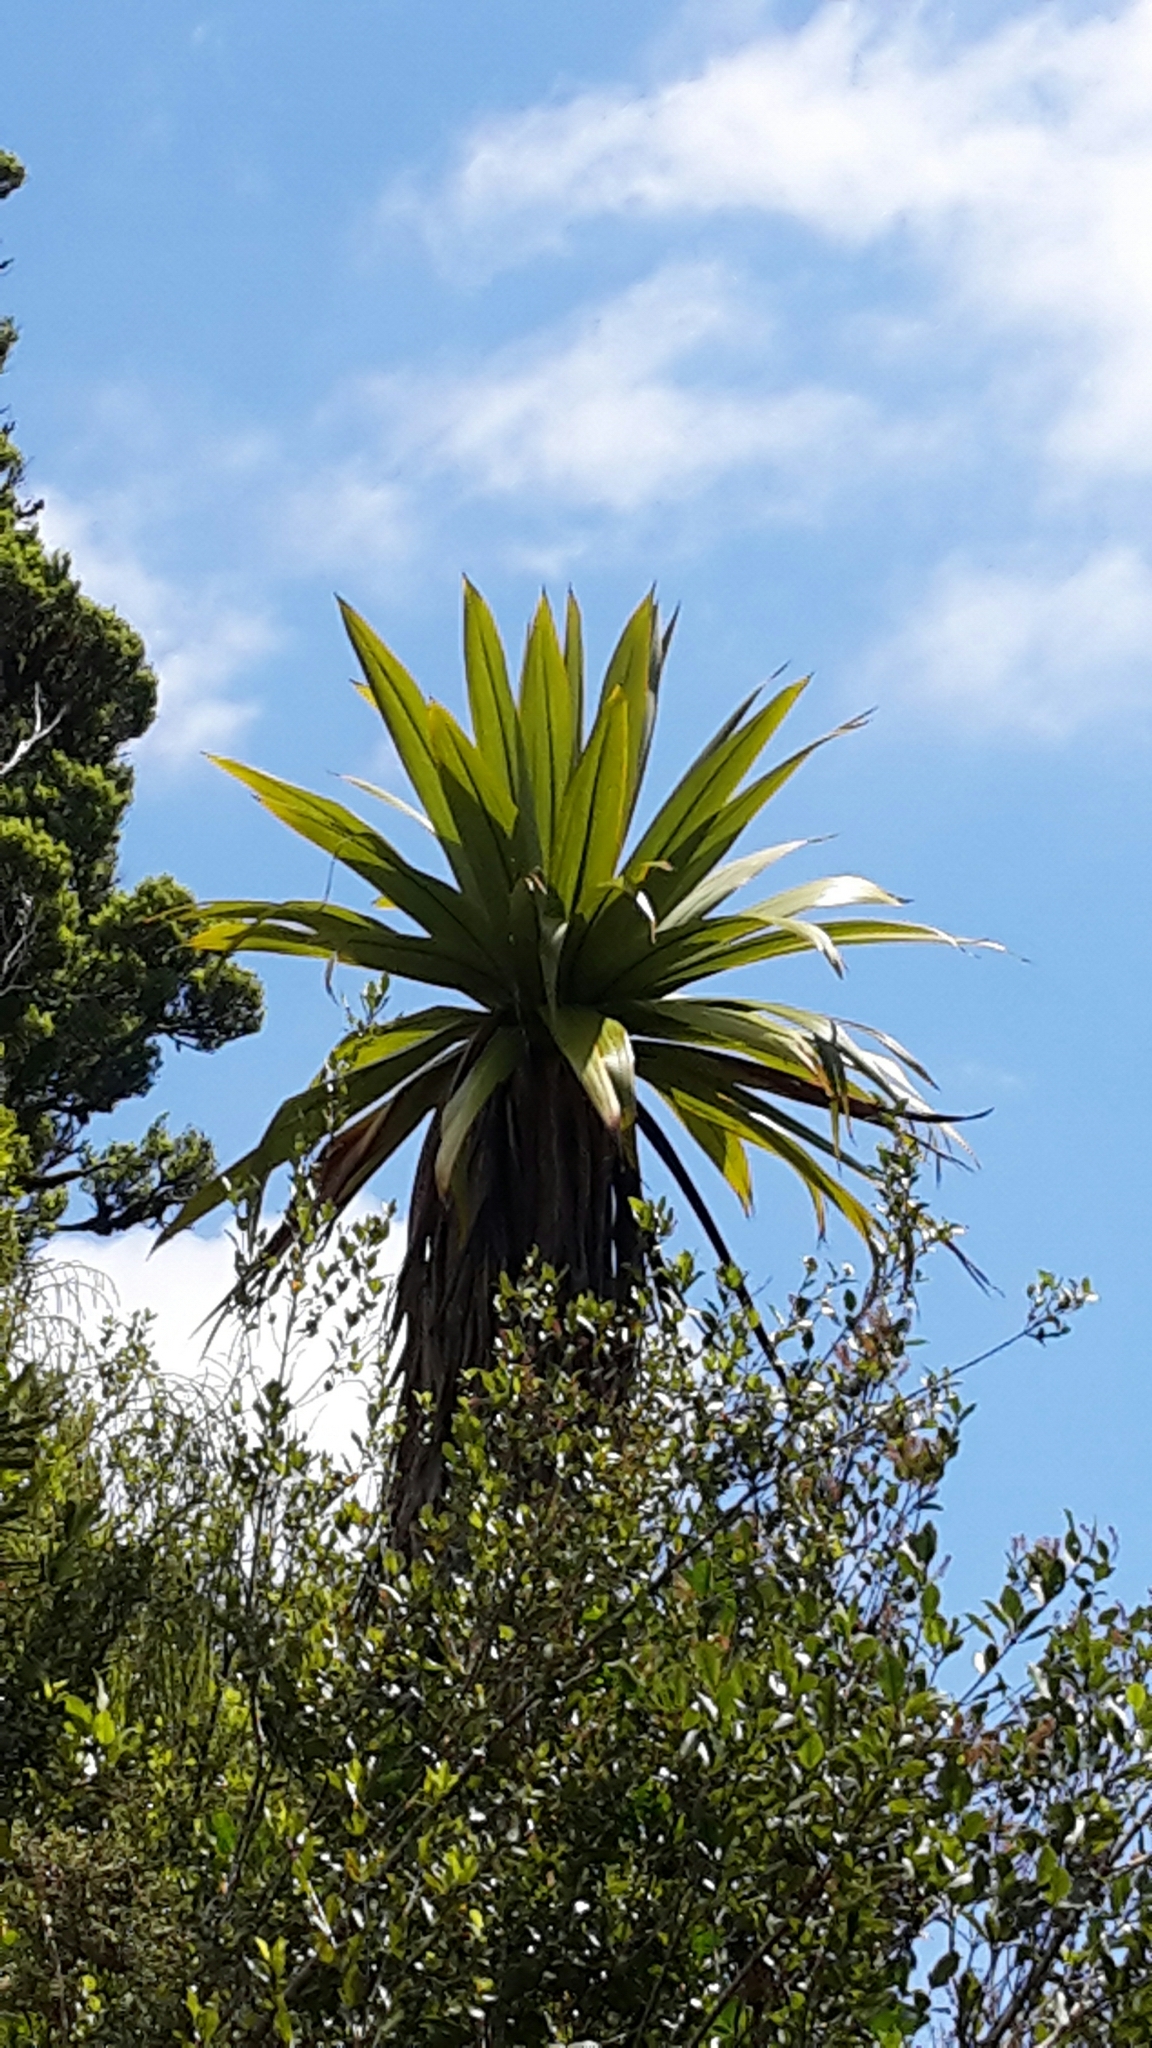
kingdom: Plantae
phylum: Tracheophyta
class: Liliopsida
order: Asparagales
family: Asparagaceae
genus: Cordyline
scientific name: Cordyline indivisa
